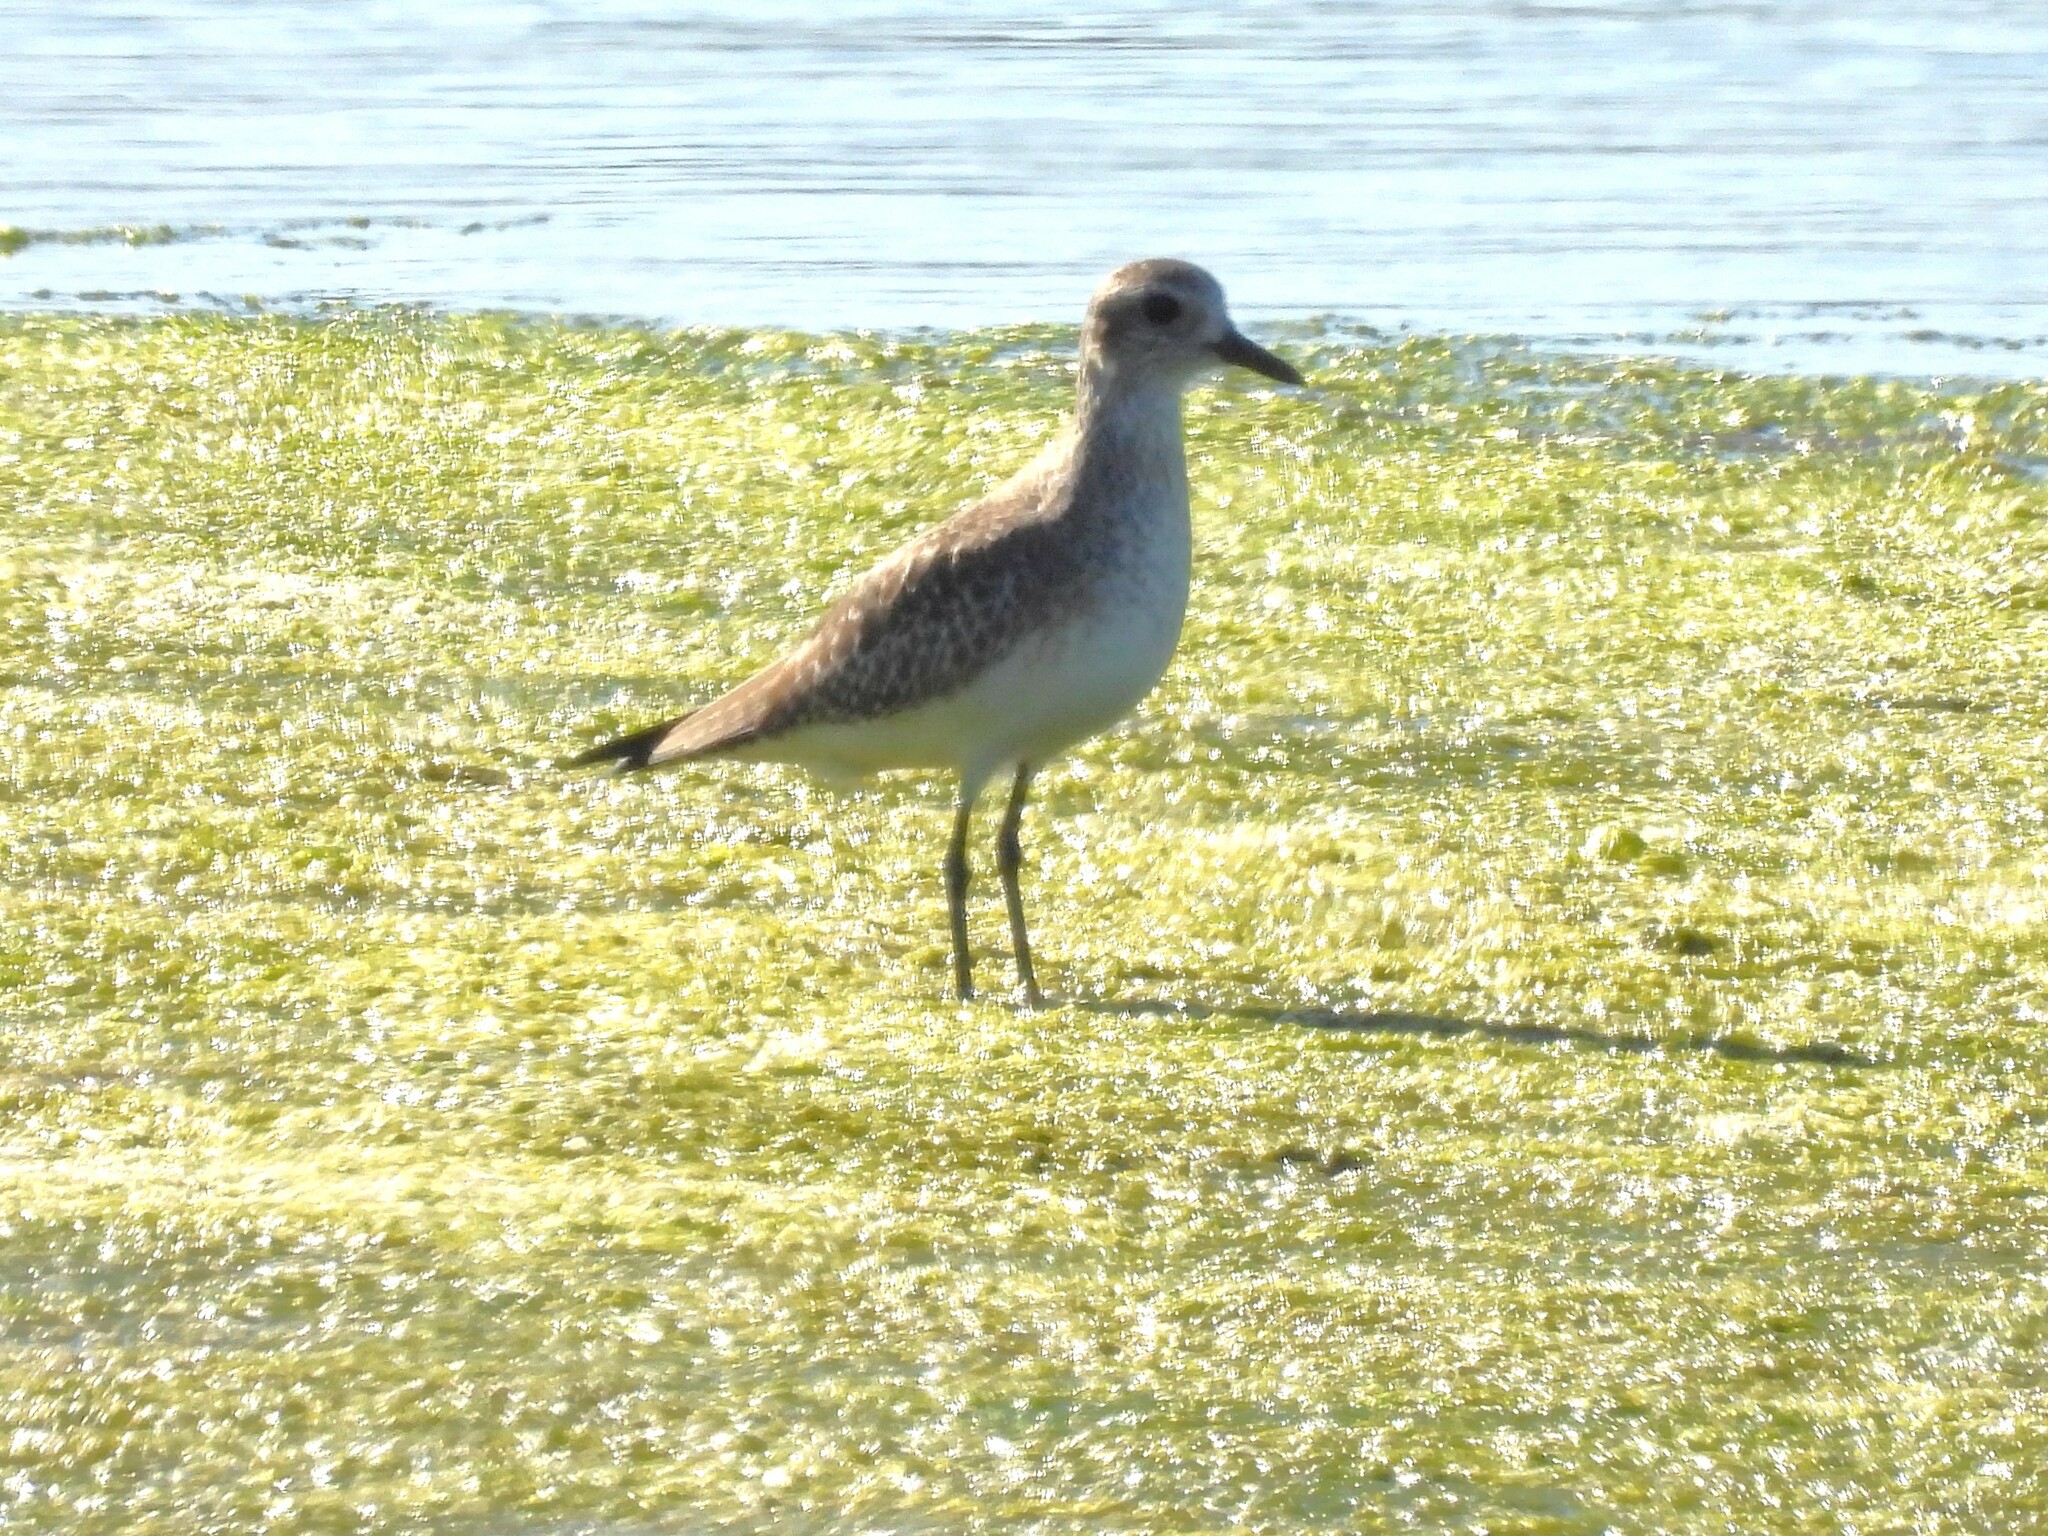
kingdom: Animalia
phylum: Chordata
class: Aves
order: Charadriiformes
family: Charadriidae
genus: Pluvialis
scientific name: Pluvialis squatarola
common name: Grey plover
